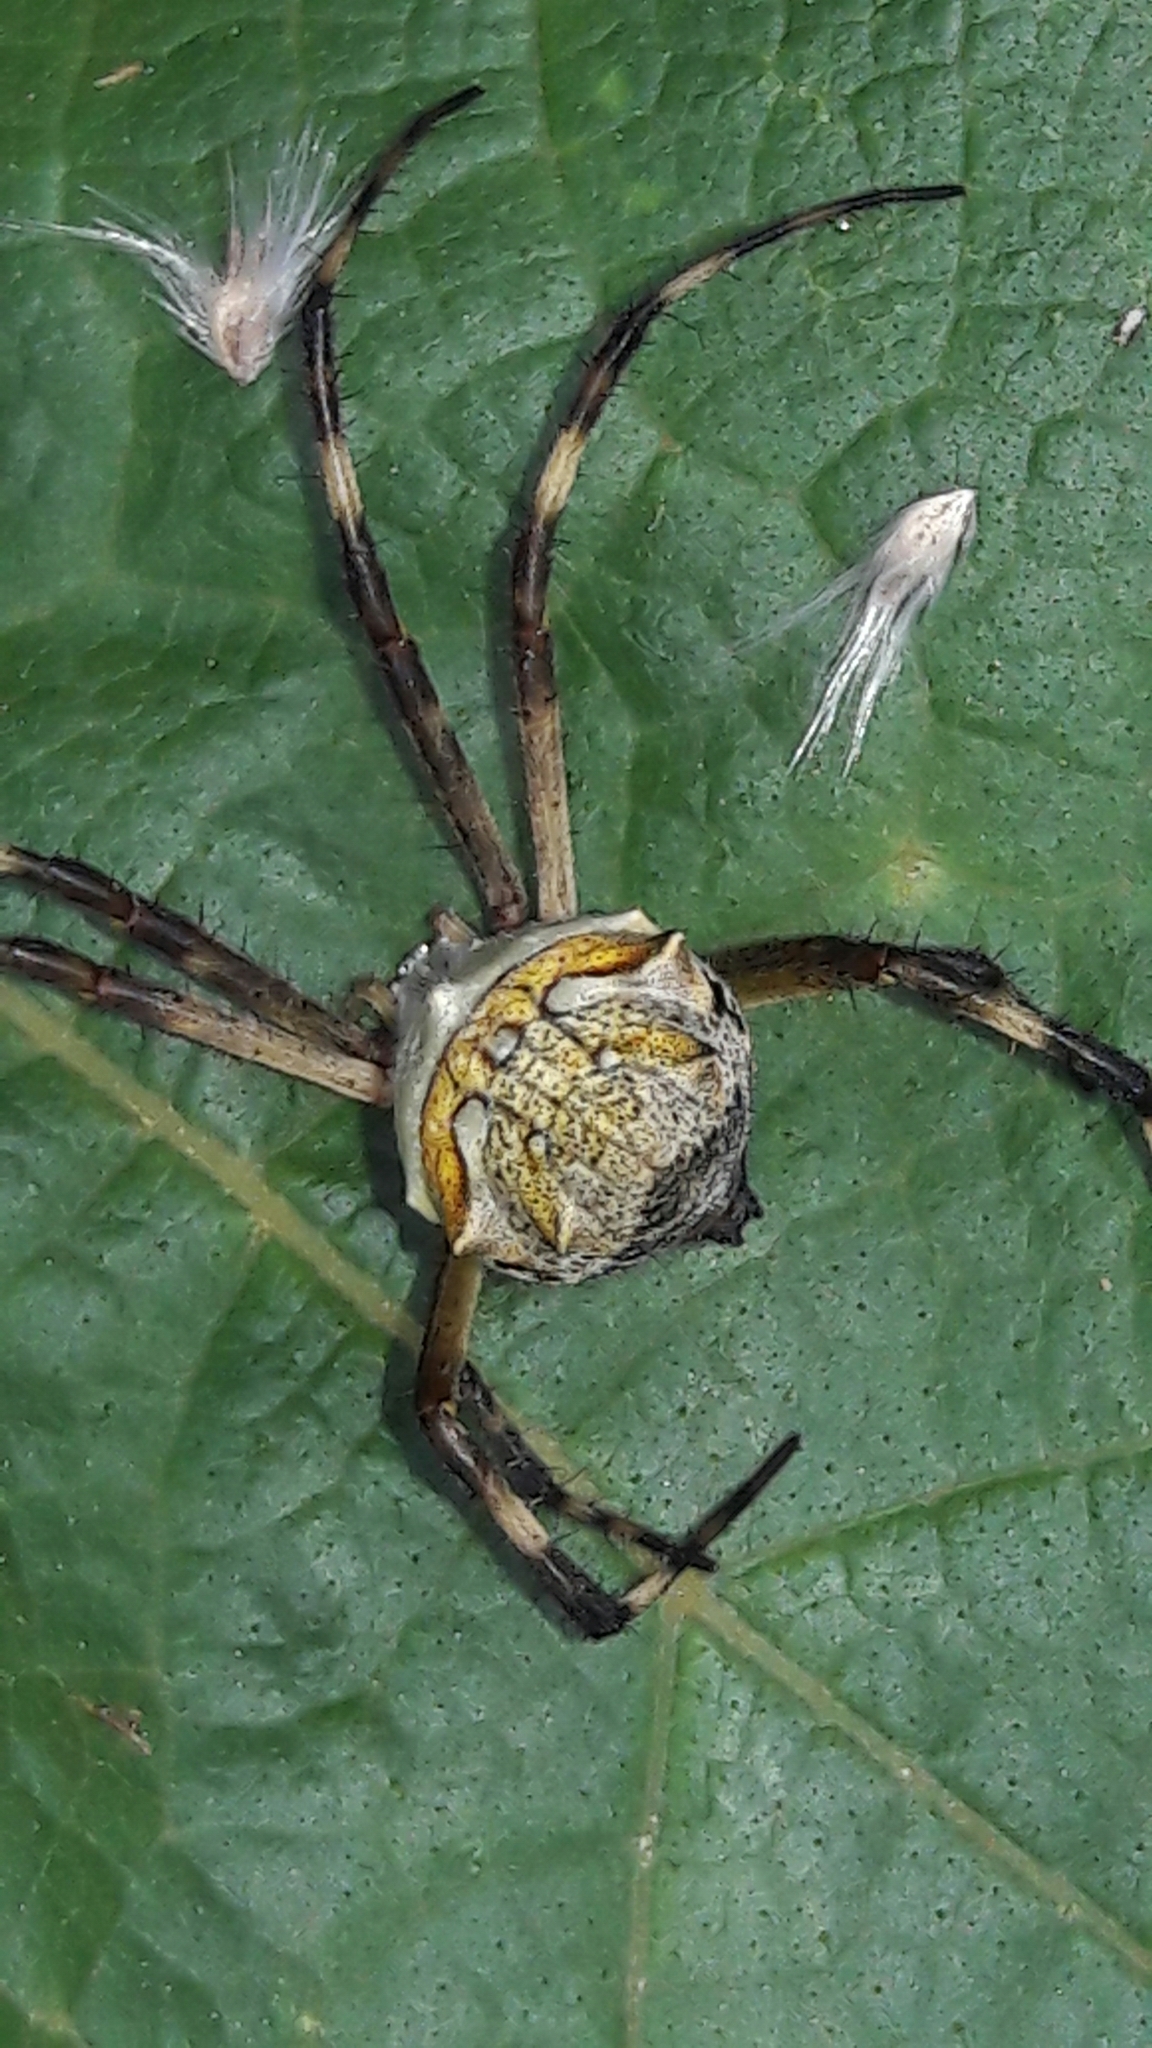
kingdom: Animalia
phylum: Arthropoda
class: Arachnida
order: Araneae
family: Araneidae
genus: Argiope
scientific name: Argiope argentata
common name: Orb weavers
